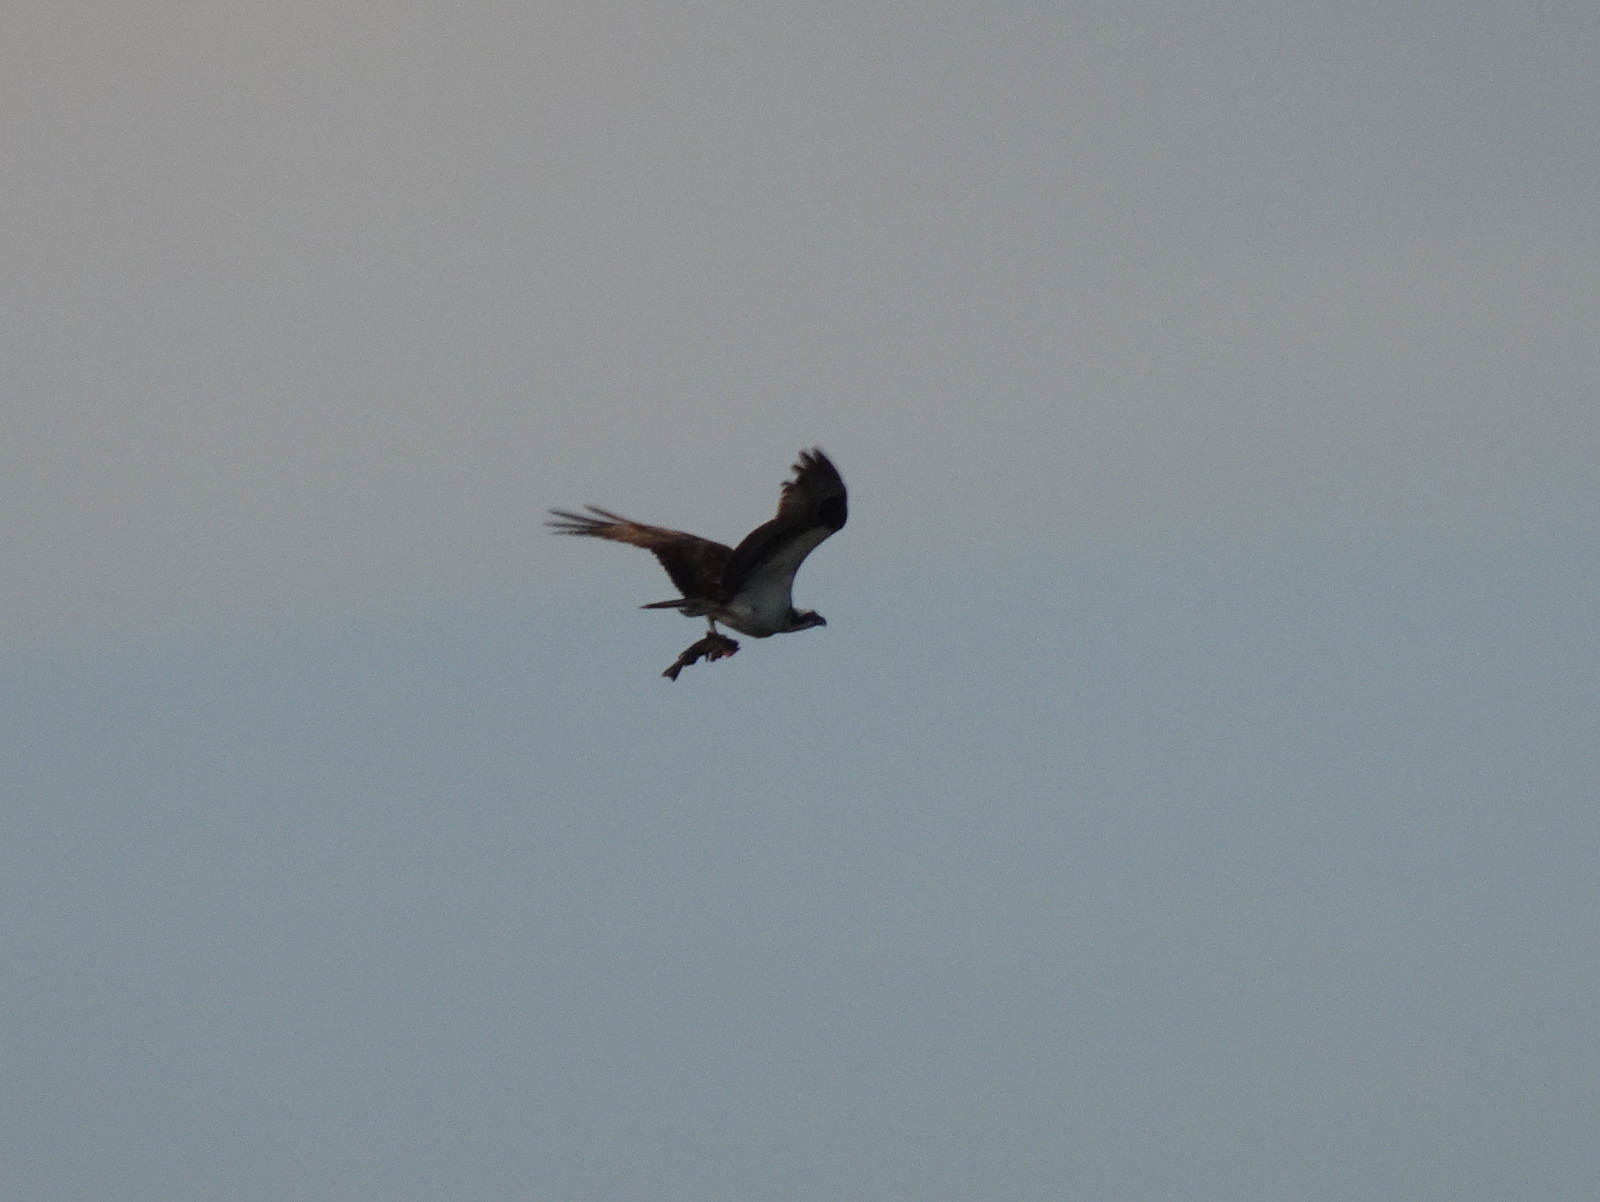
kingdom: Animalia
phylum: Chordata
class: Aves
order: Accipitriformes
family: Pandionidae
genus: Pandion
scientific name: Pandion haliaetus
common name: Osprey
